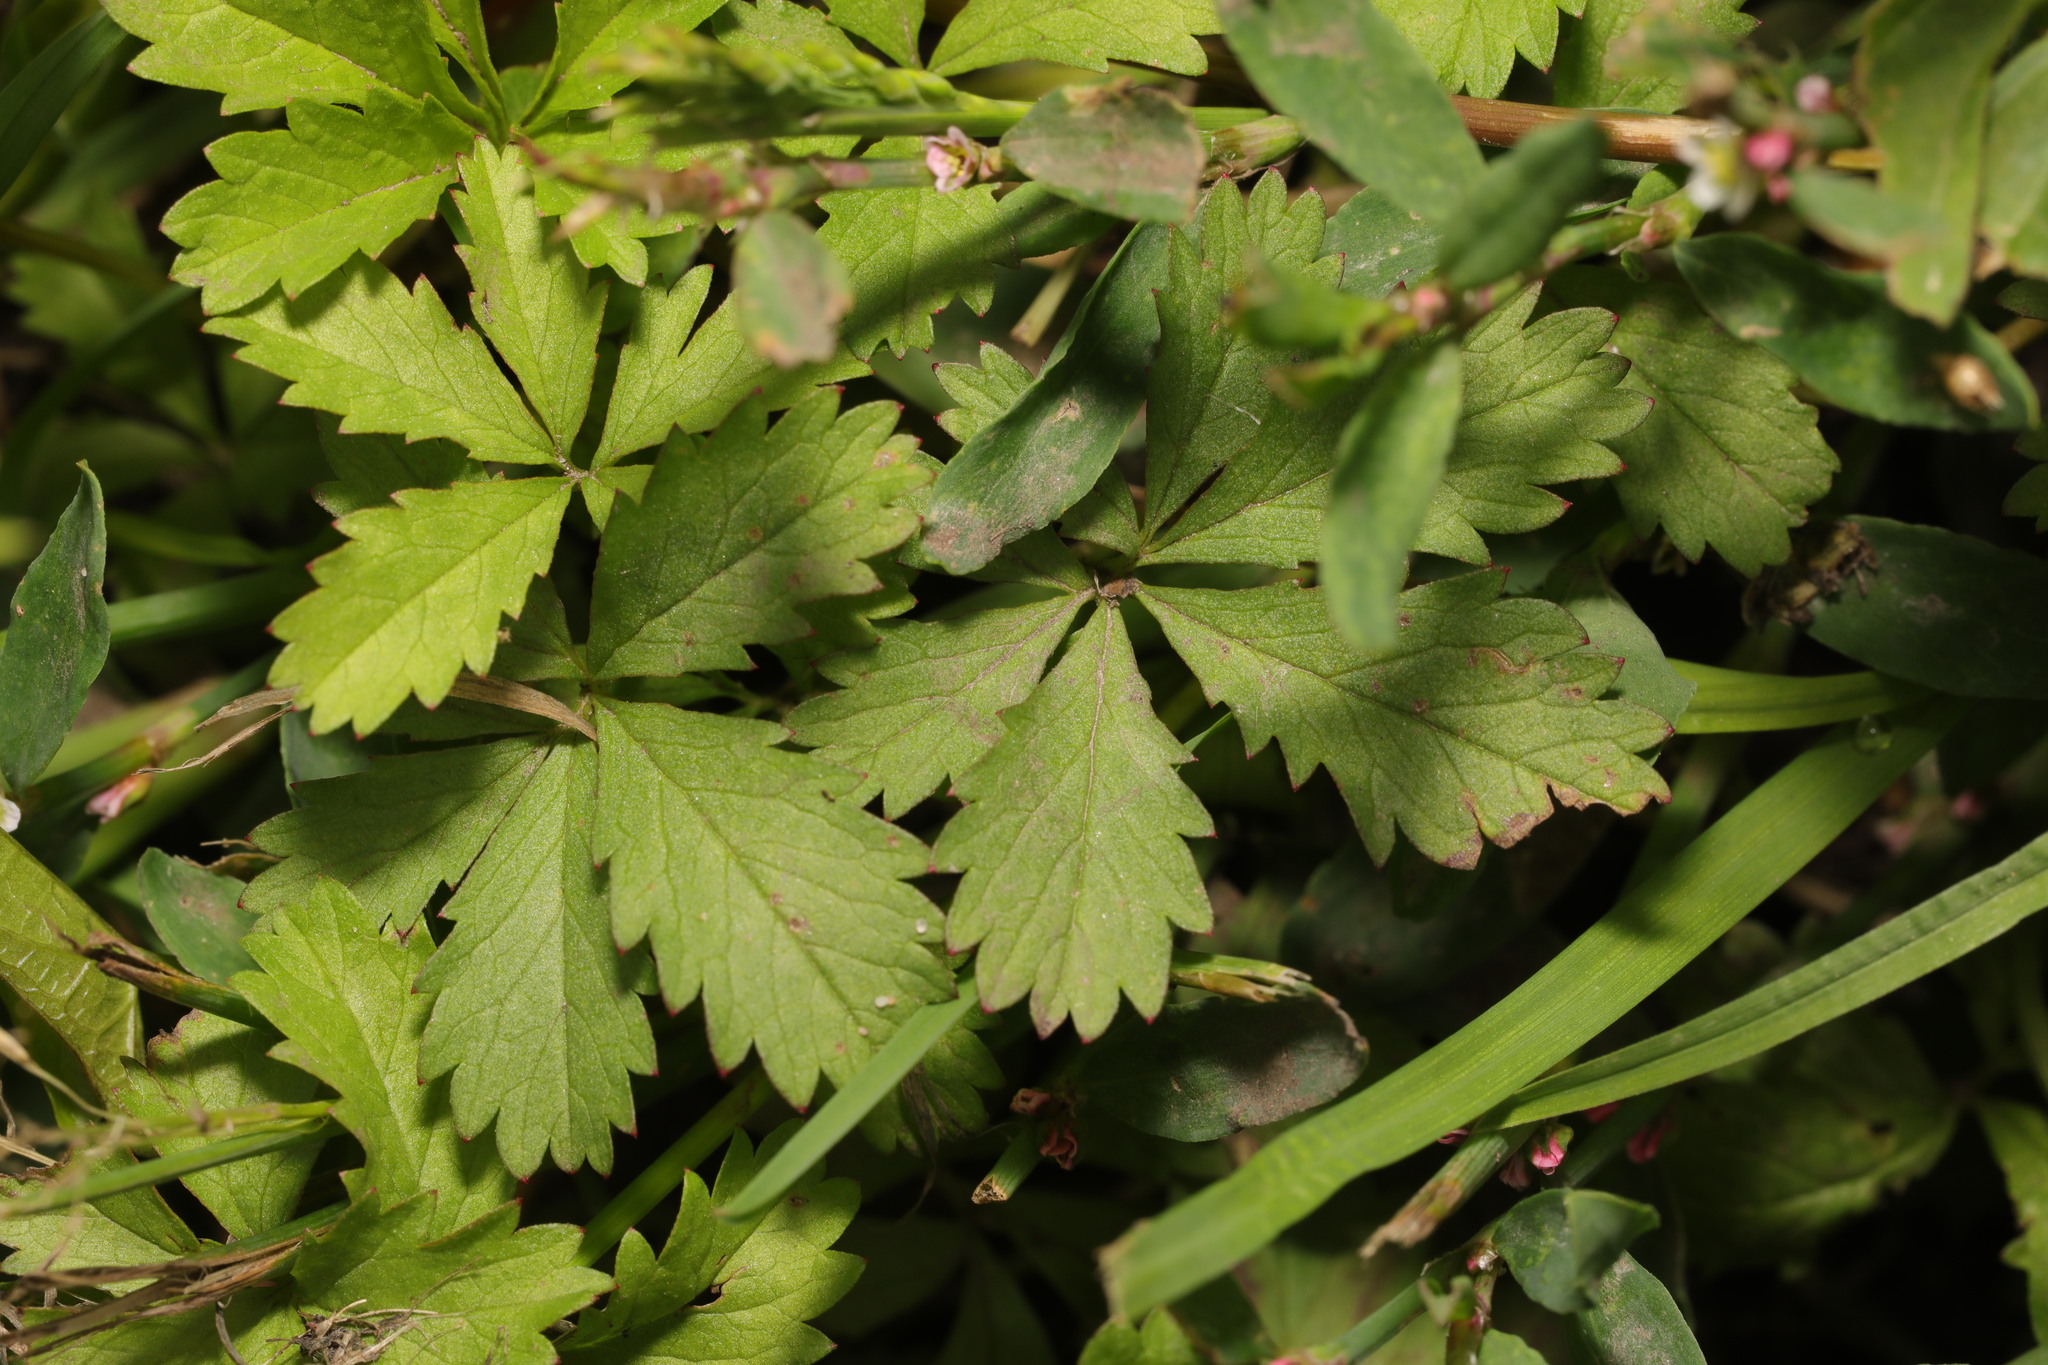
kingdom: Plantae
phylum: Tracheophyta
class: Magnoliopsida
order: Rosales
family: Rosaceae
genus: Potentilla
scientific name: Potentilla reptans
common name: Creeping cinquefoil
